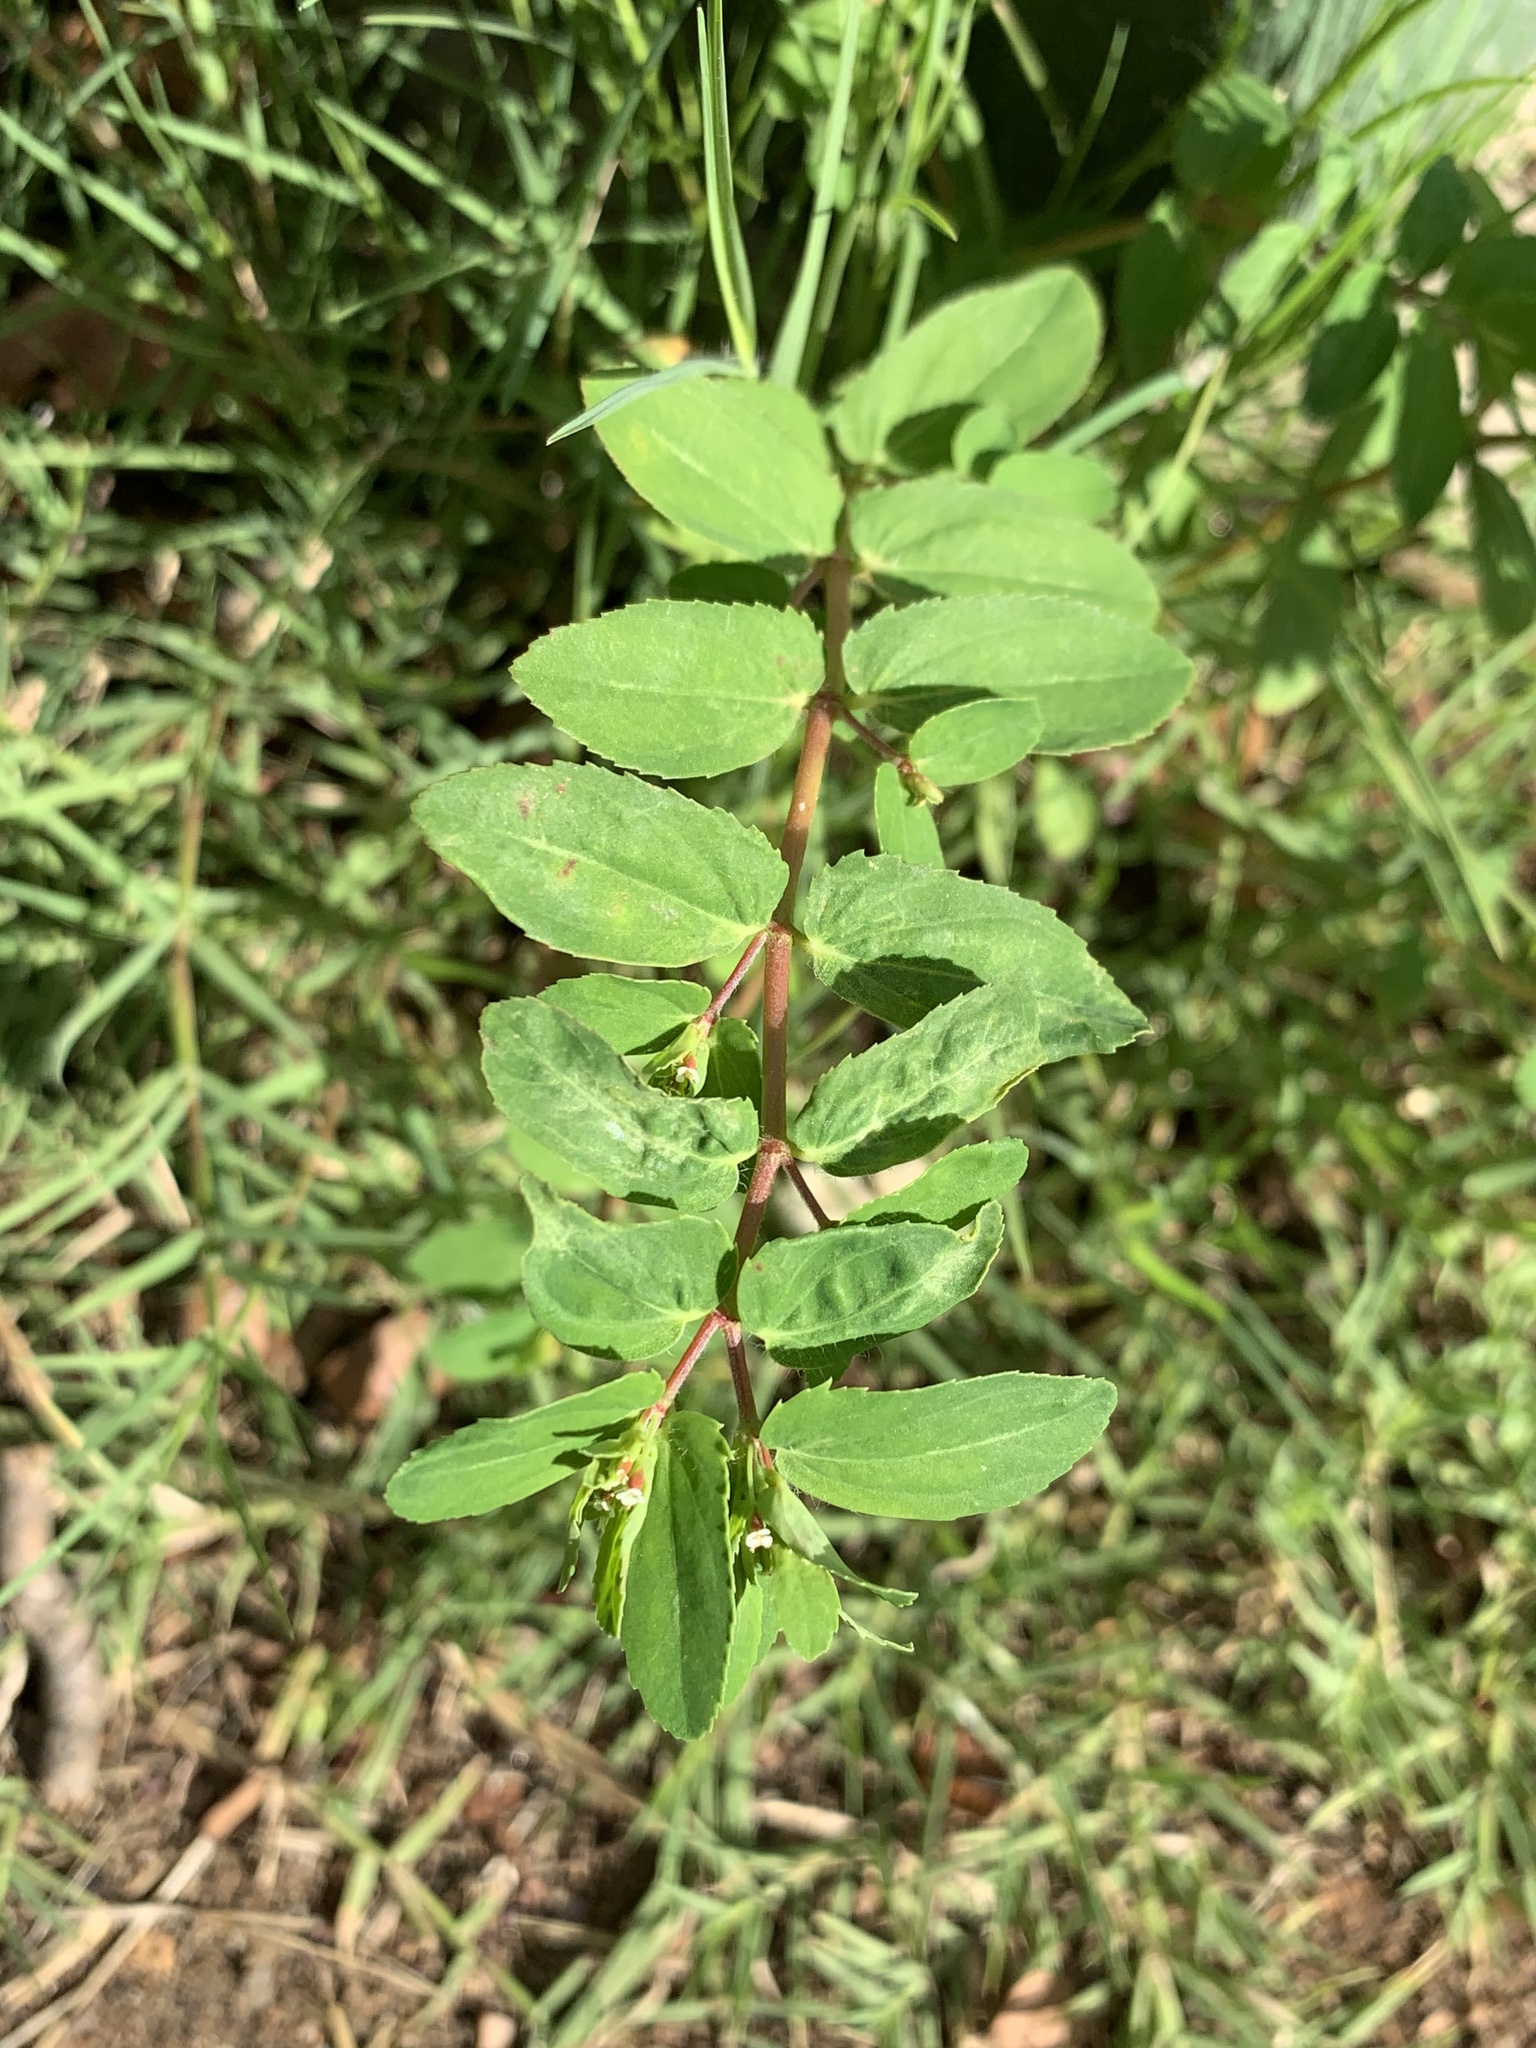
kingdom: Plantae
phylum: Tracheophyta
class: Magnoliopsida
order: Malpighiales
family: Euphorbiaceae
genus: Euphorbia
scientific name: Euphorbia nutans
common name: Eyebane
